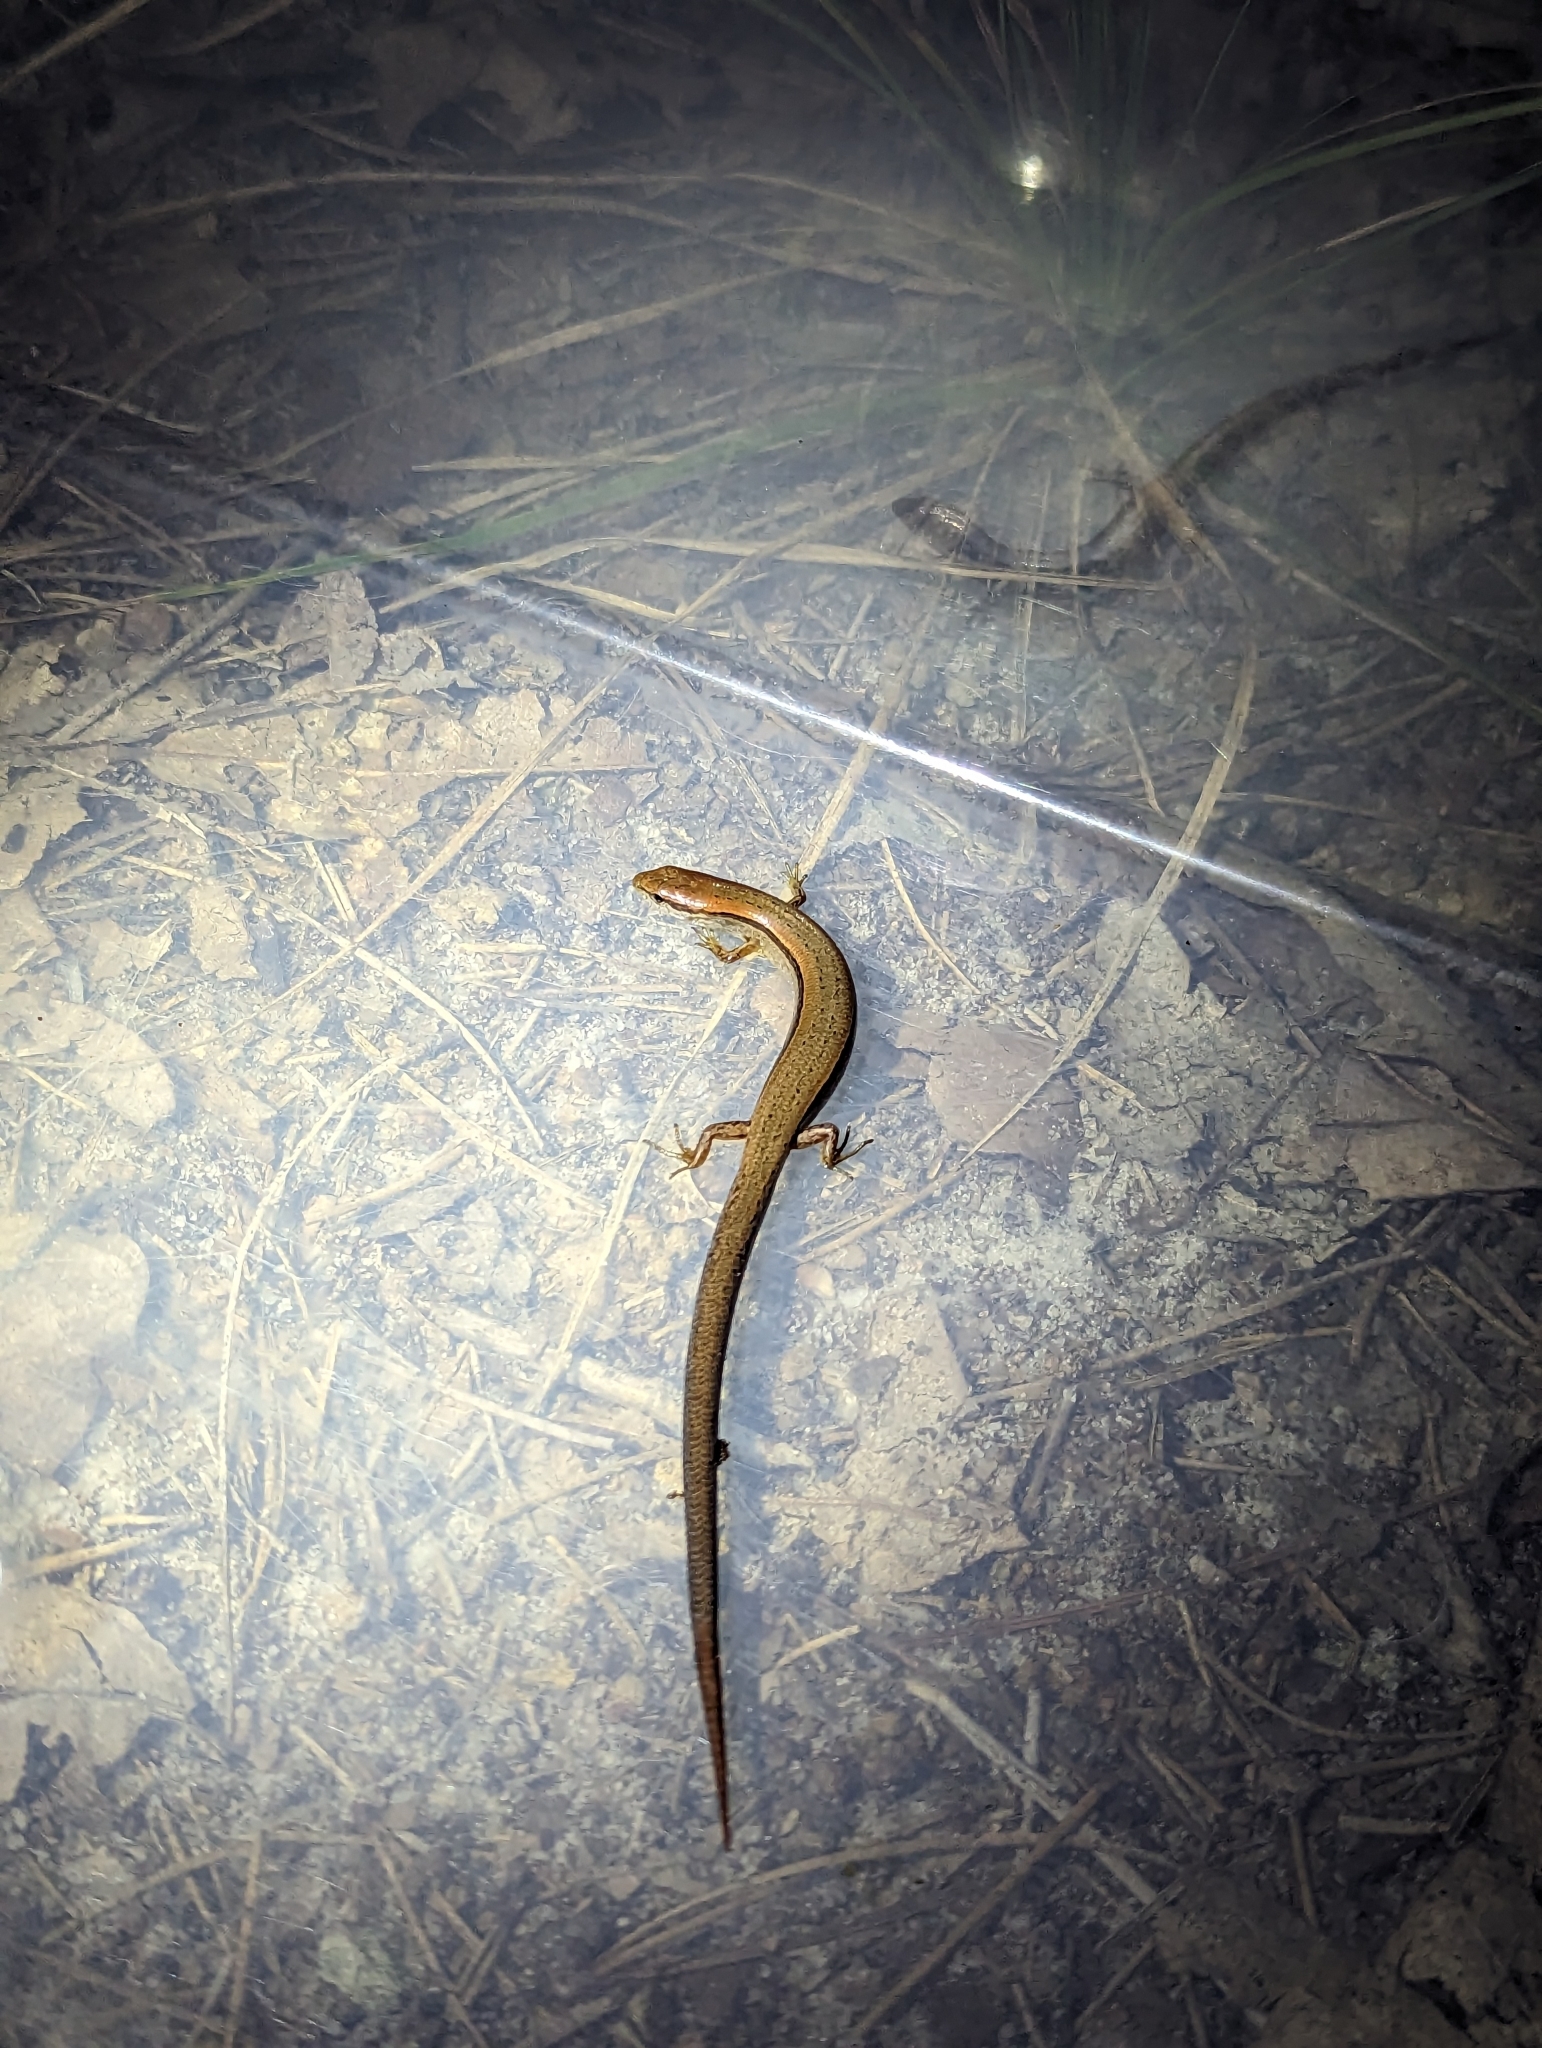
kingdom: Animalia
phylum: Chordata
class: Squamata
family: Scincidae
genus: Scincella
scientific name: Scincella lateralis
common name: Ground skink
